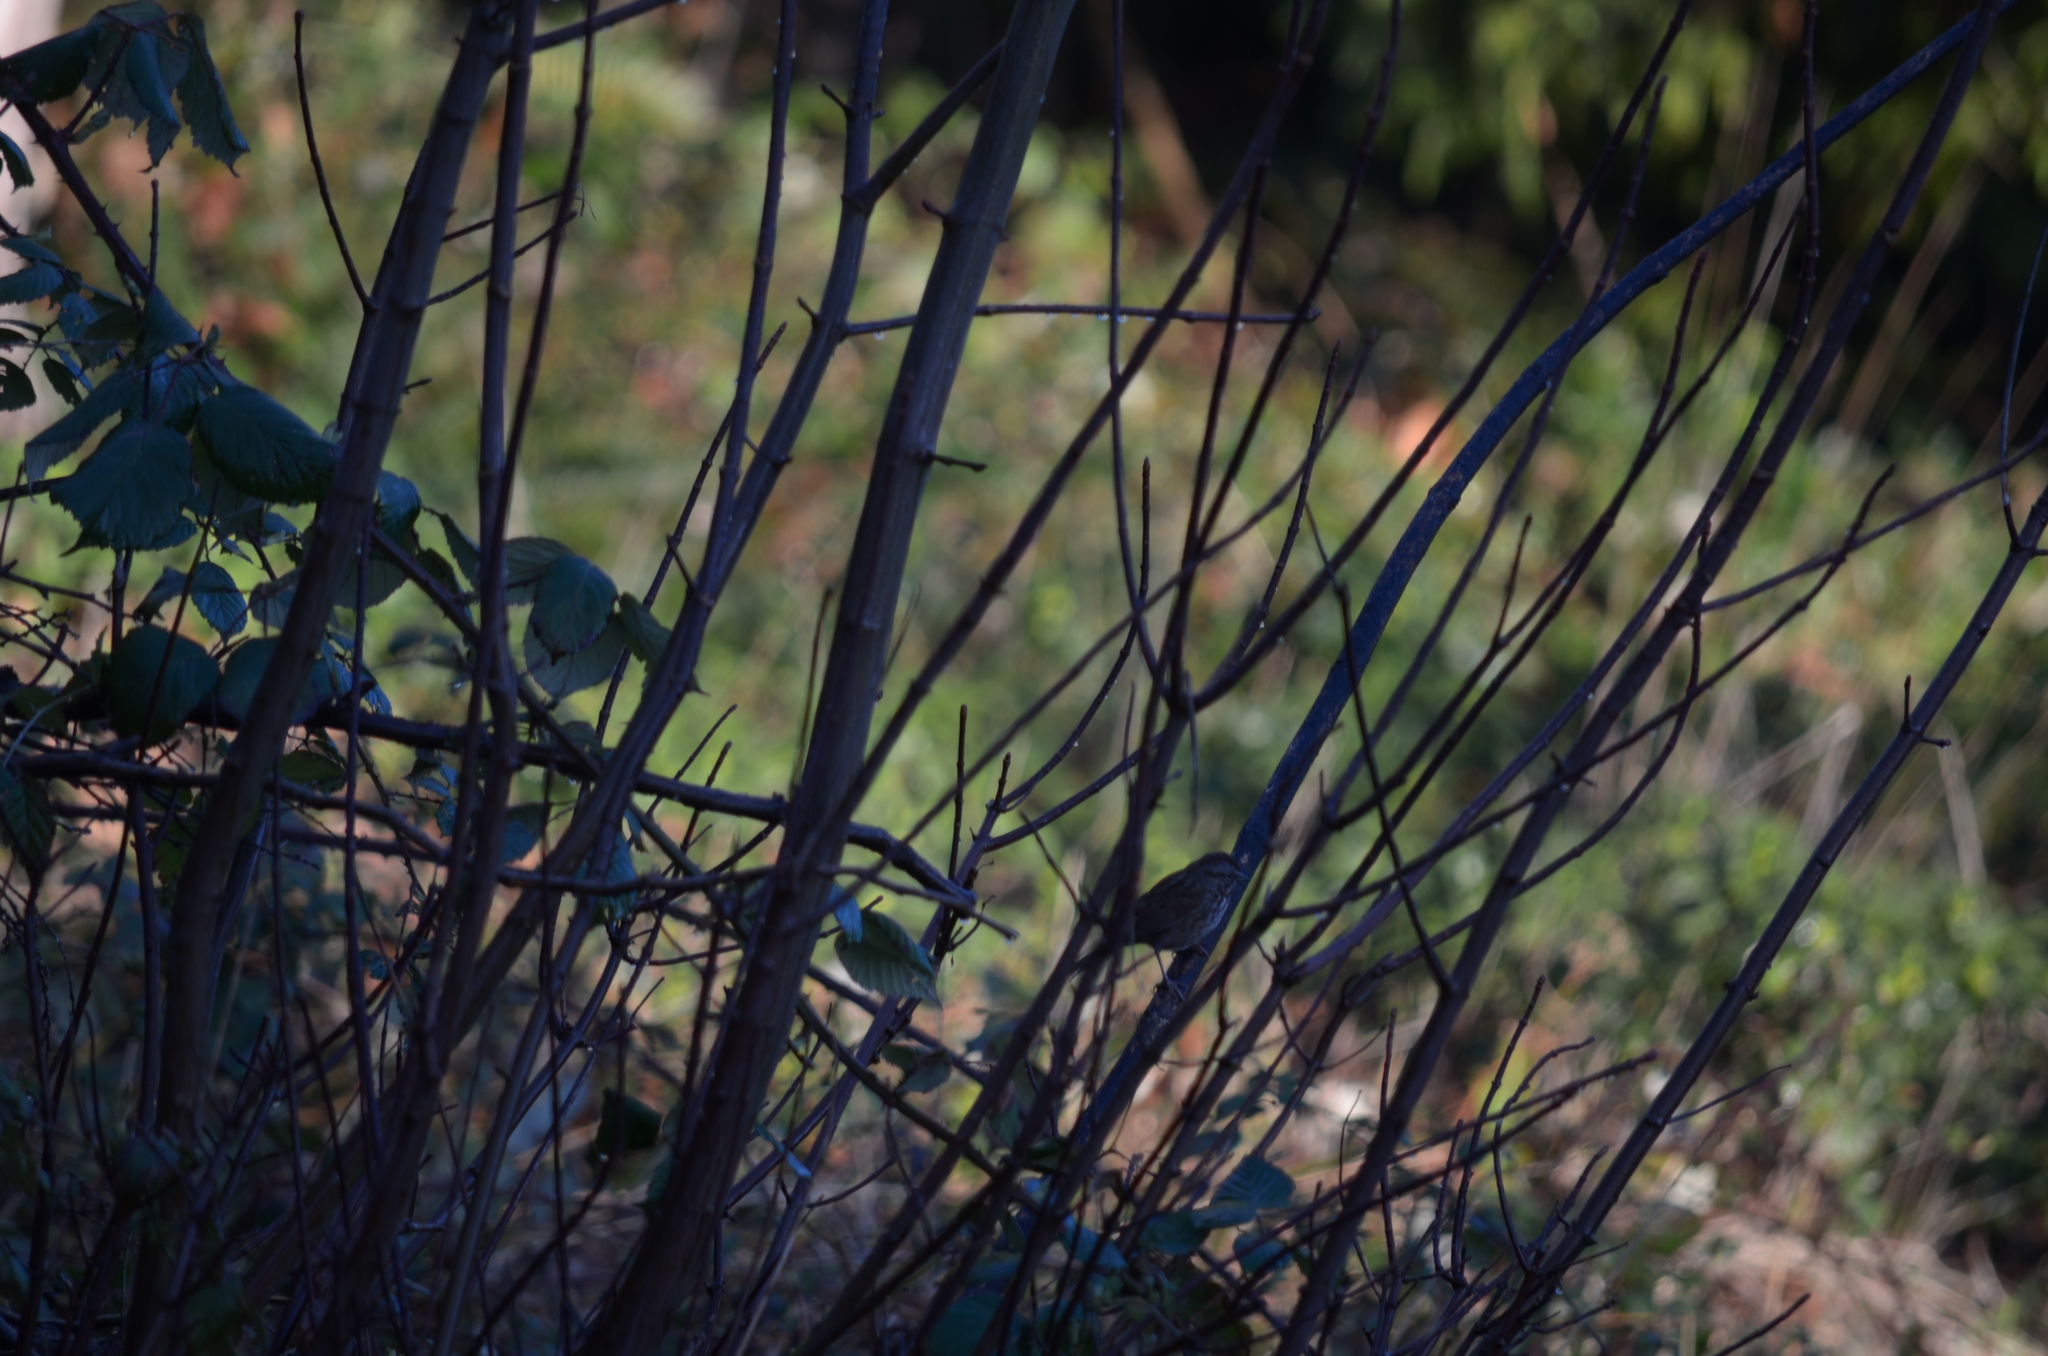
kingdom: Animalia
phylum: Chordata
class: Aves
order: Passeriformes
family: Passerellidae
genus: Melospiza
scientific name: Melospiza melodia
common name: Song sparrow
